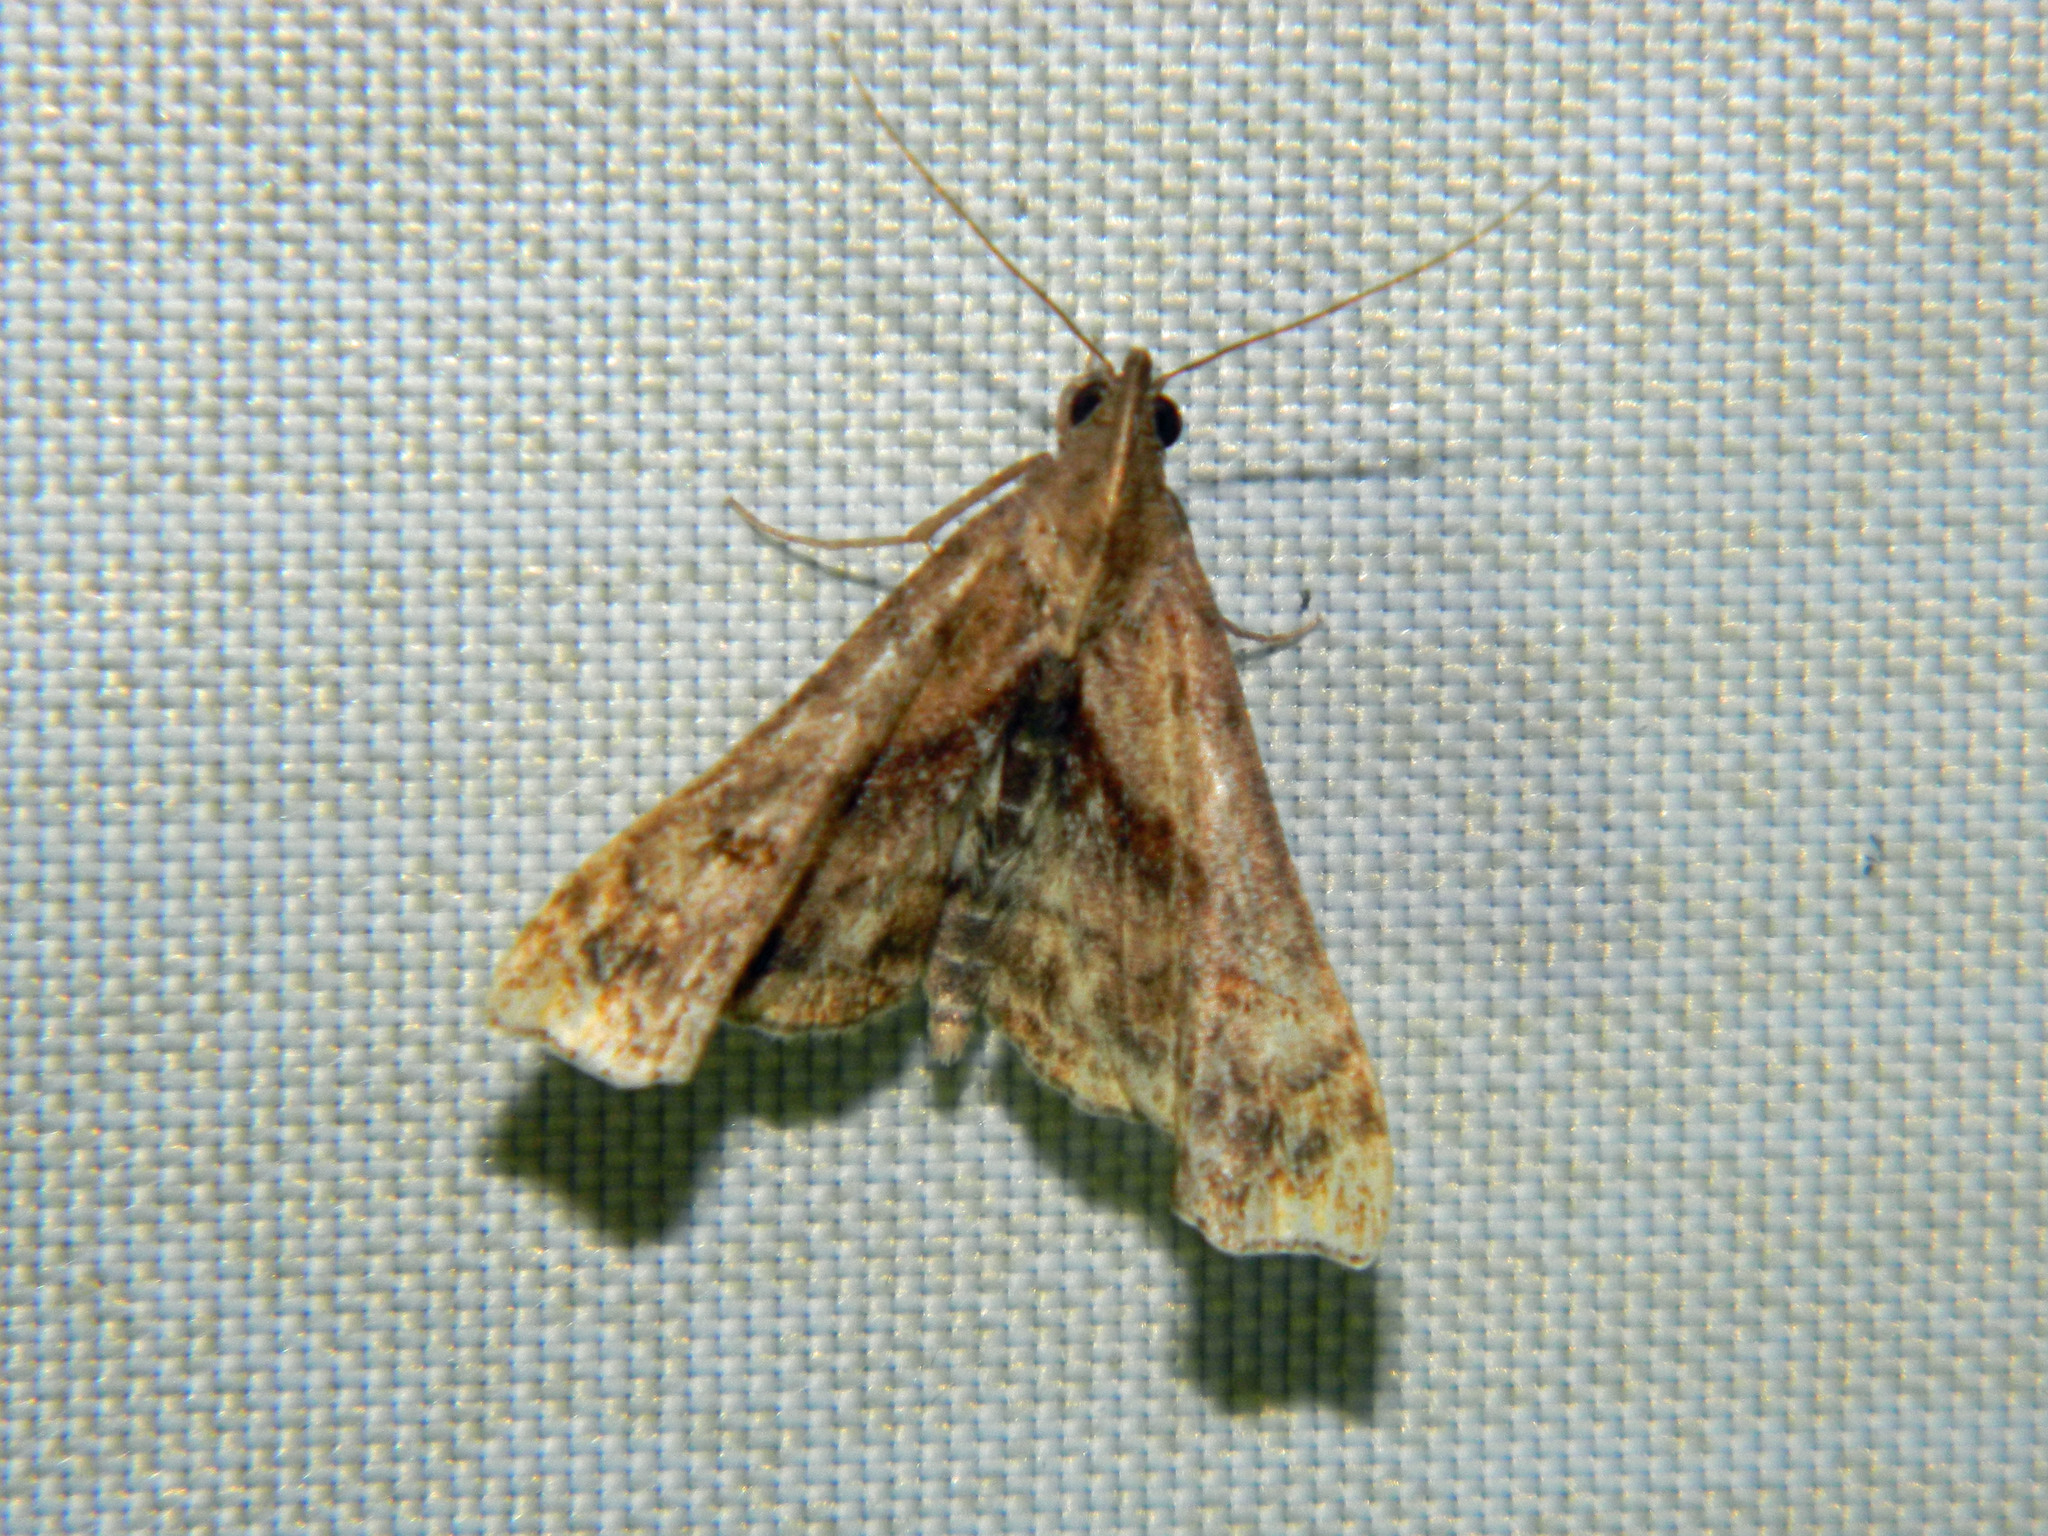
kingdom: Animalia
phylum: Arthropoda
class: Insecta
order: Lepidoptera
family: Erebidae
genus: Palthis
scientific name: Palthis angulalis
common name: Dark-spotted palthis moth
